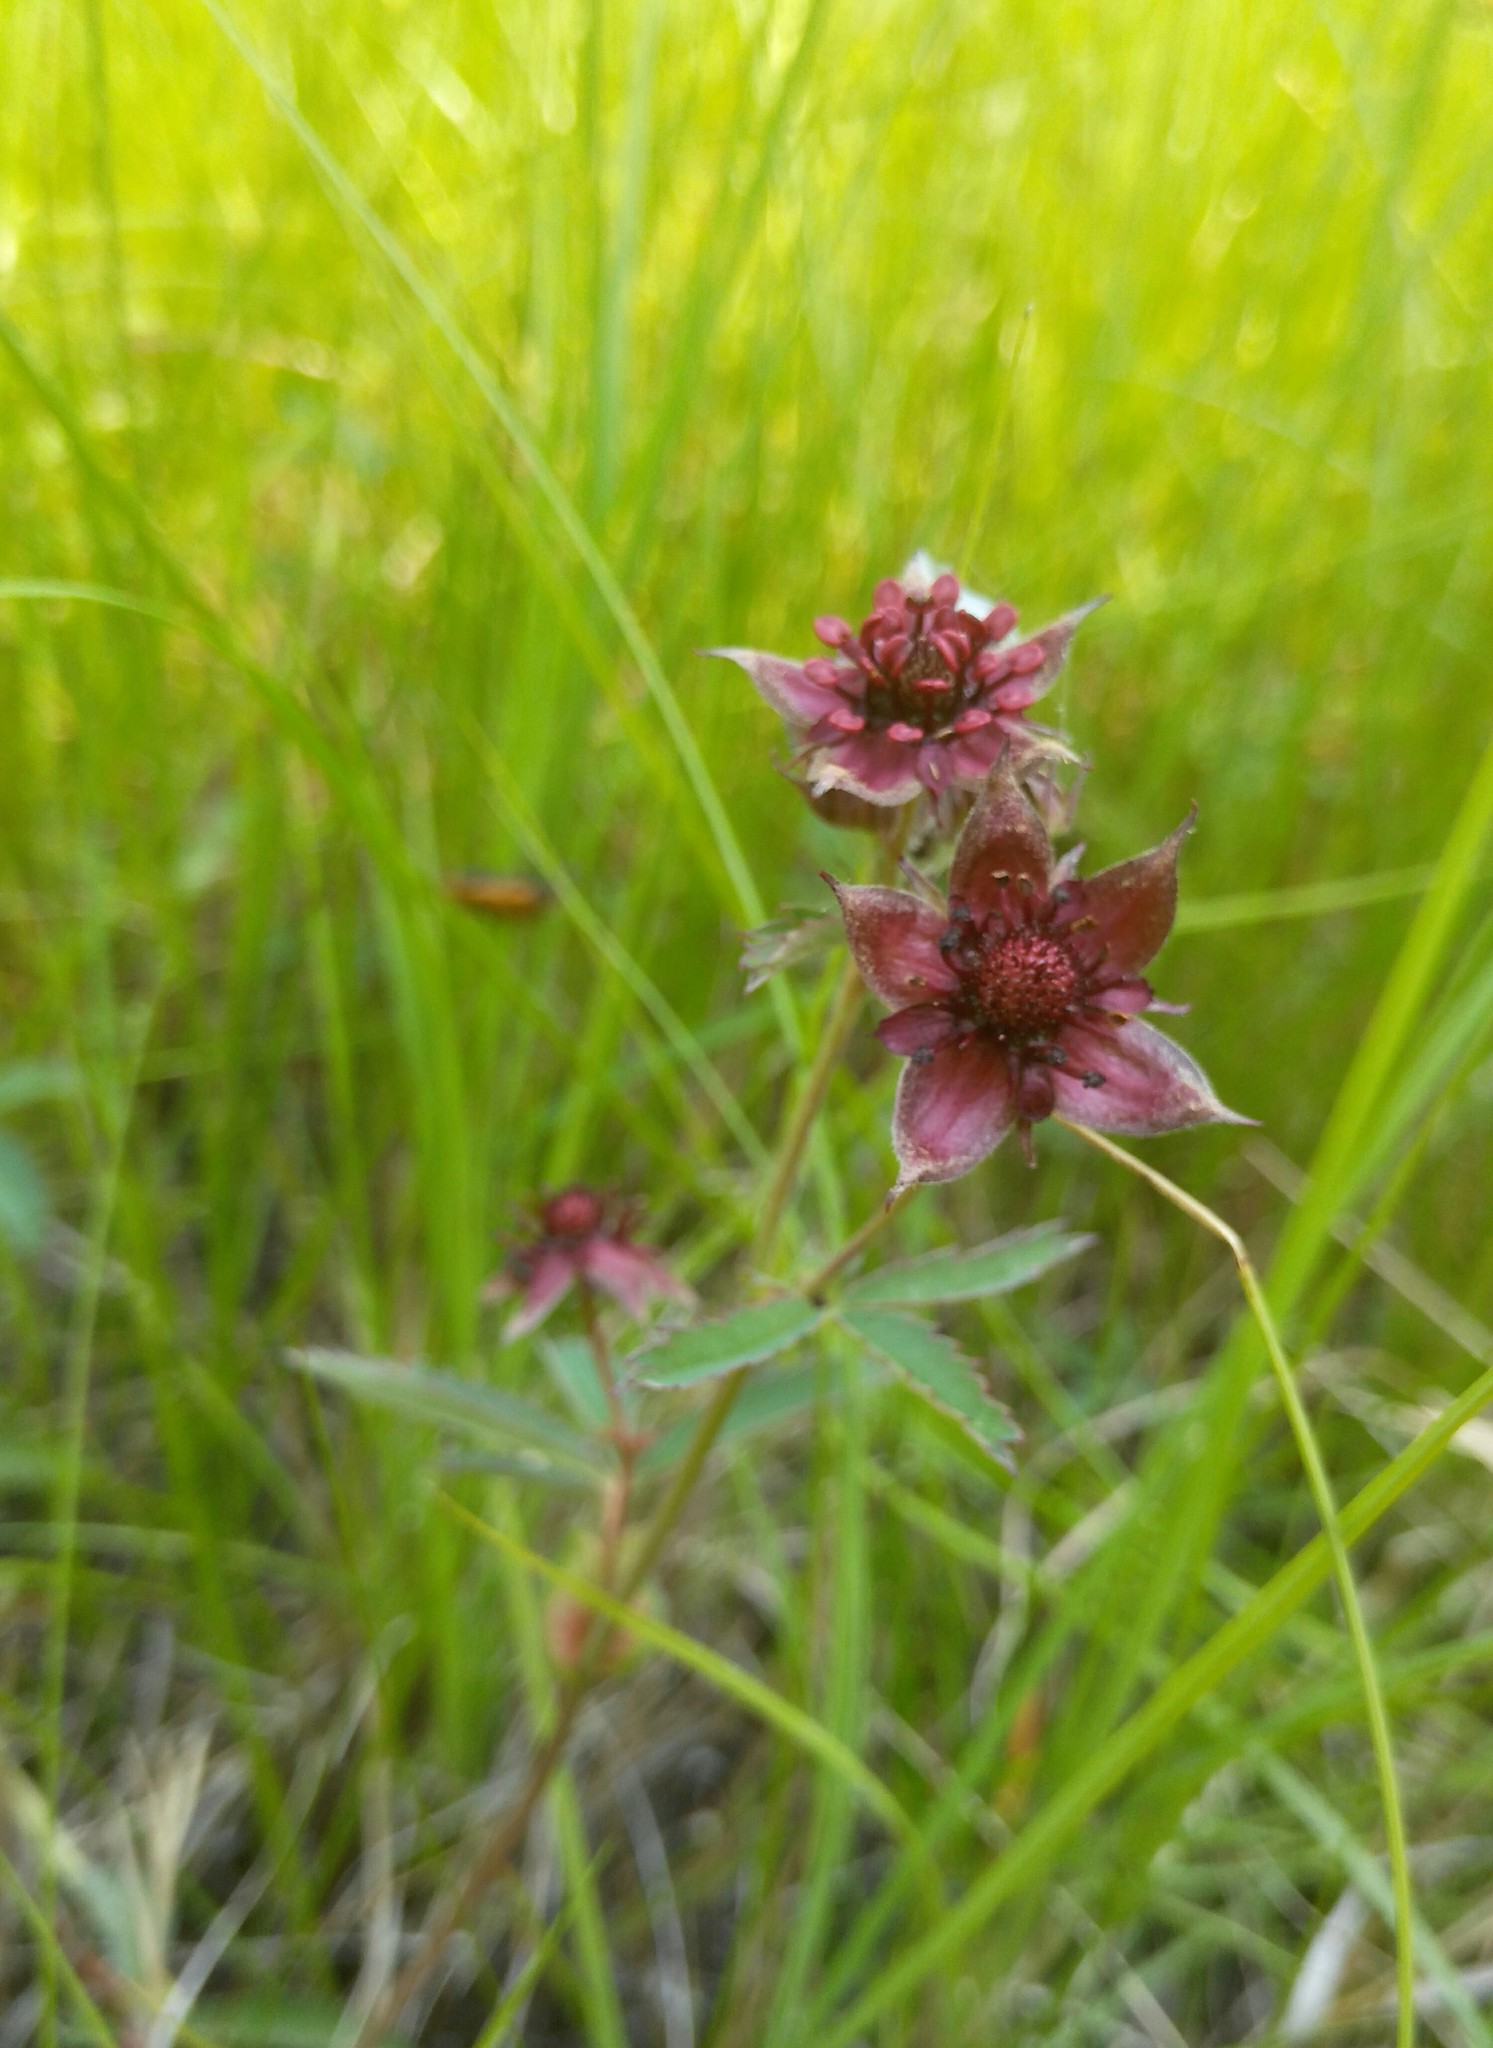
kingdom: Plantae
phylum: Tracheophyta
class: Magnoliopsida
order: Rosales
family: Rosaceae
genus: Comarum
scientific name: Comarum palustre
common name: Marsh cinquefoil
